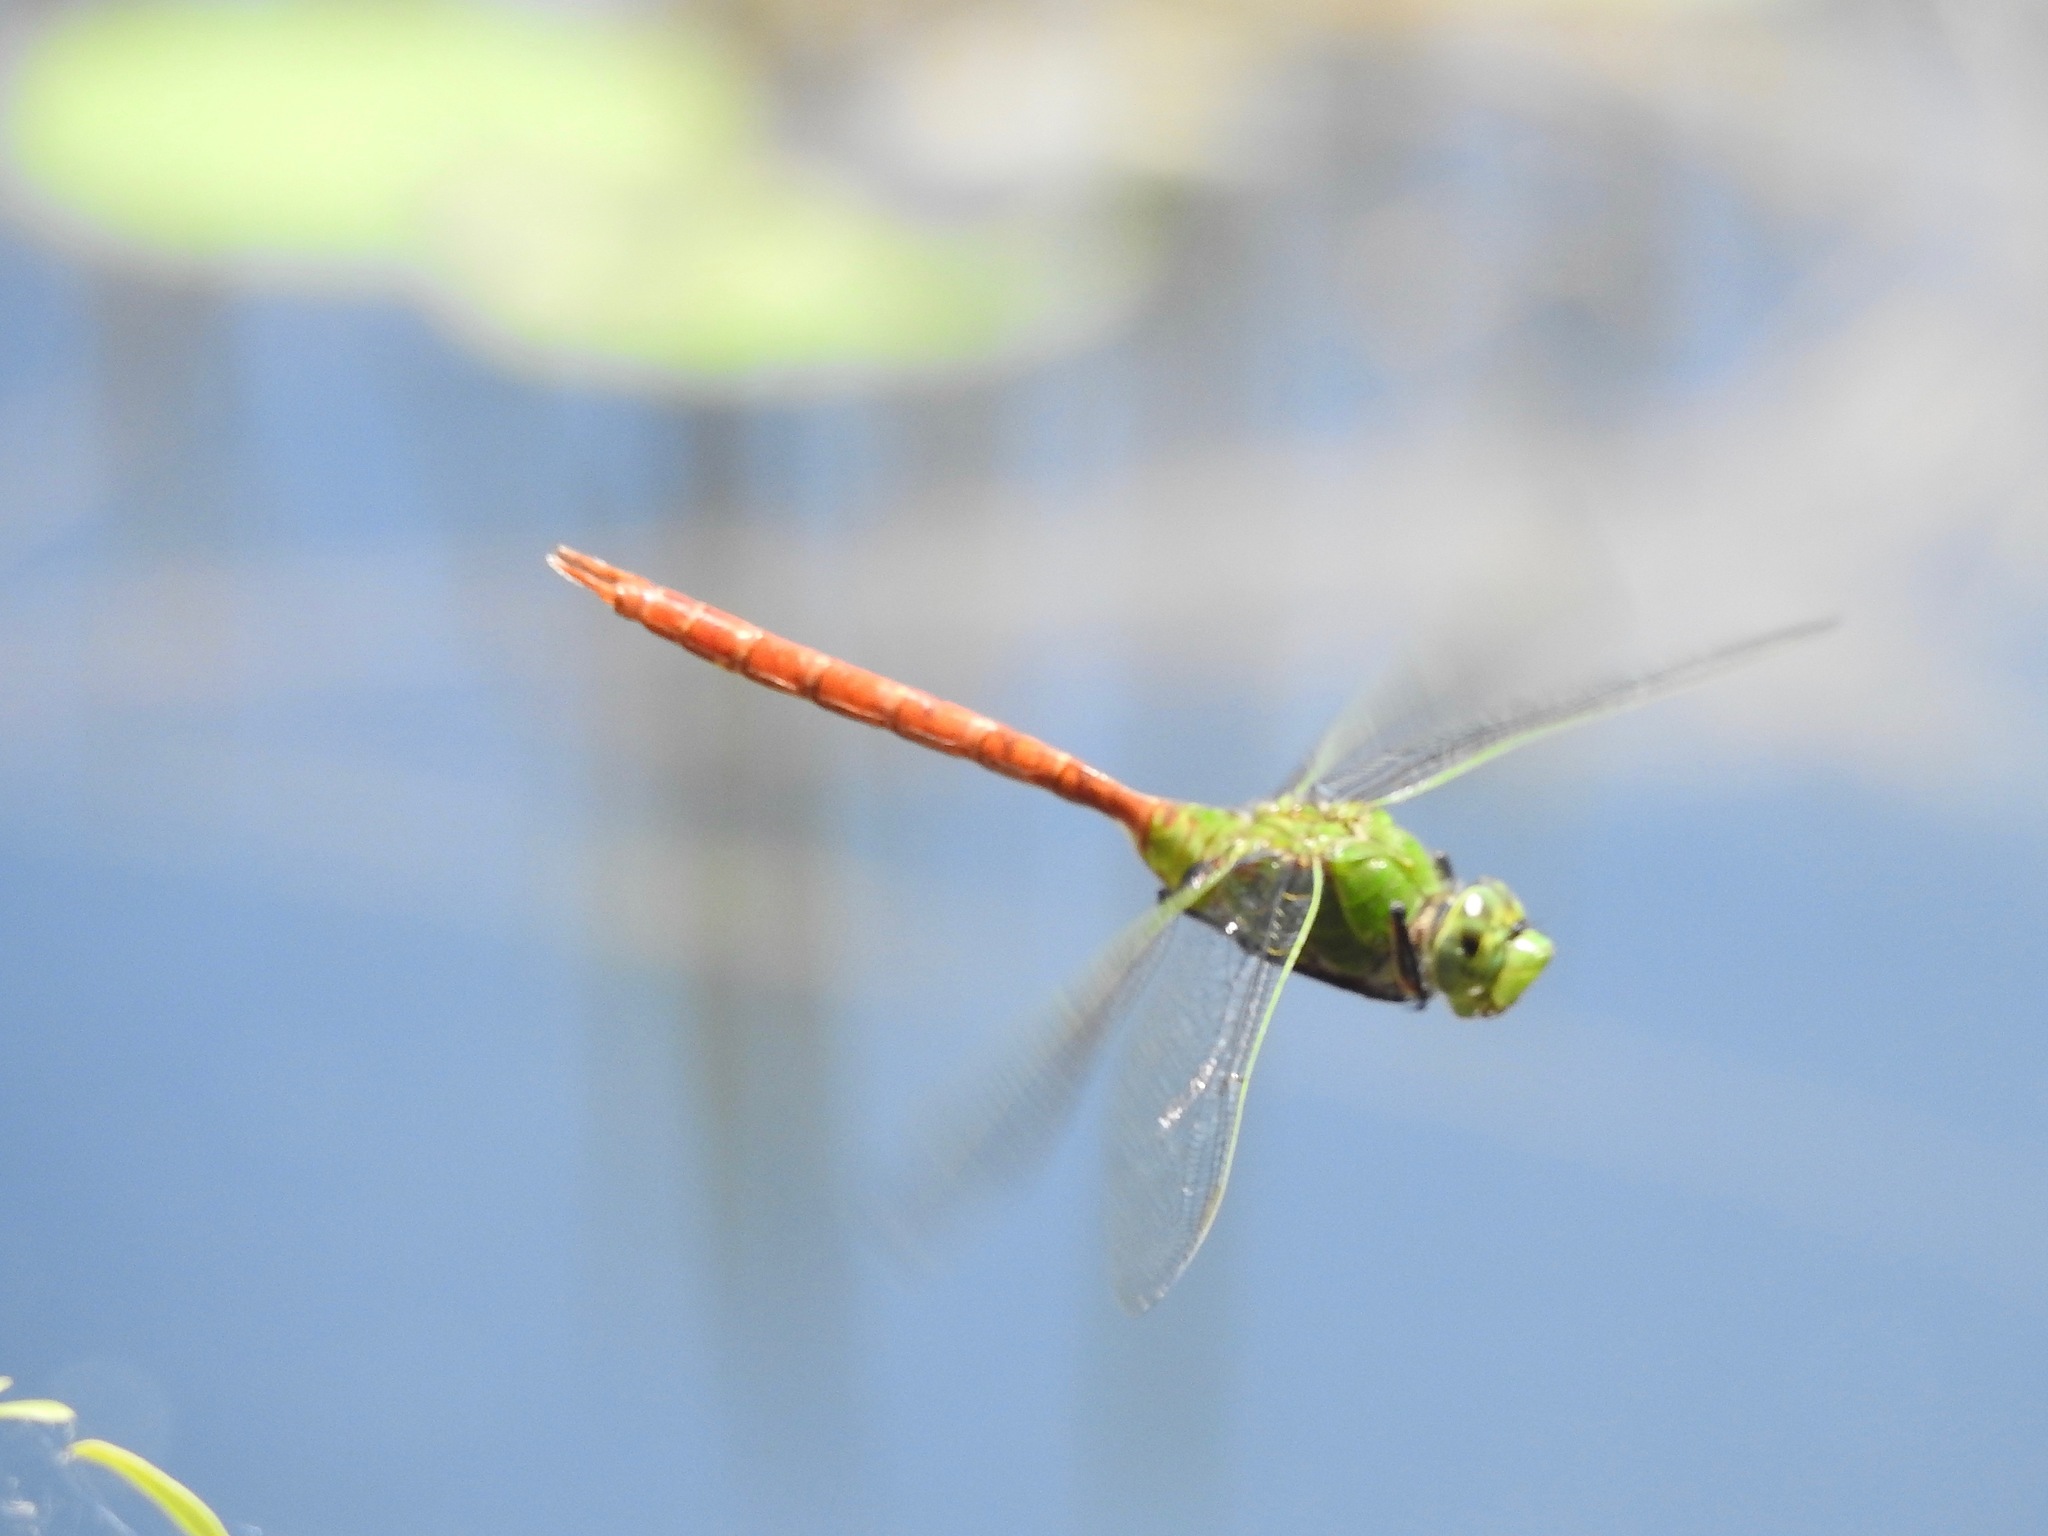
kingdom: Animalia
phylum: Arthropoda
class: Insecta
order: Odonata
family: Aeshnidae
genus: Anax
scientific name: Anax longipes
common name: Comet darner
